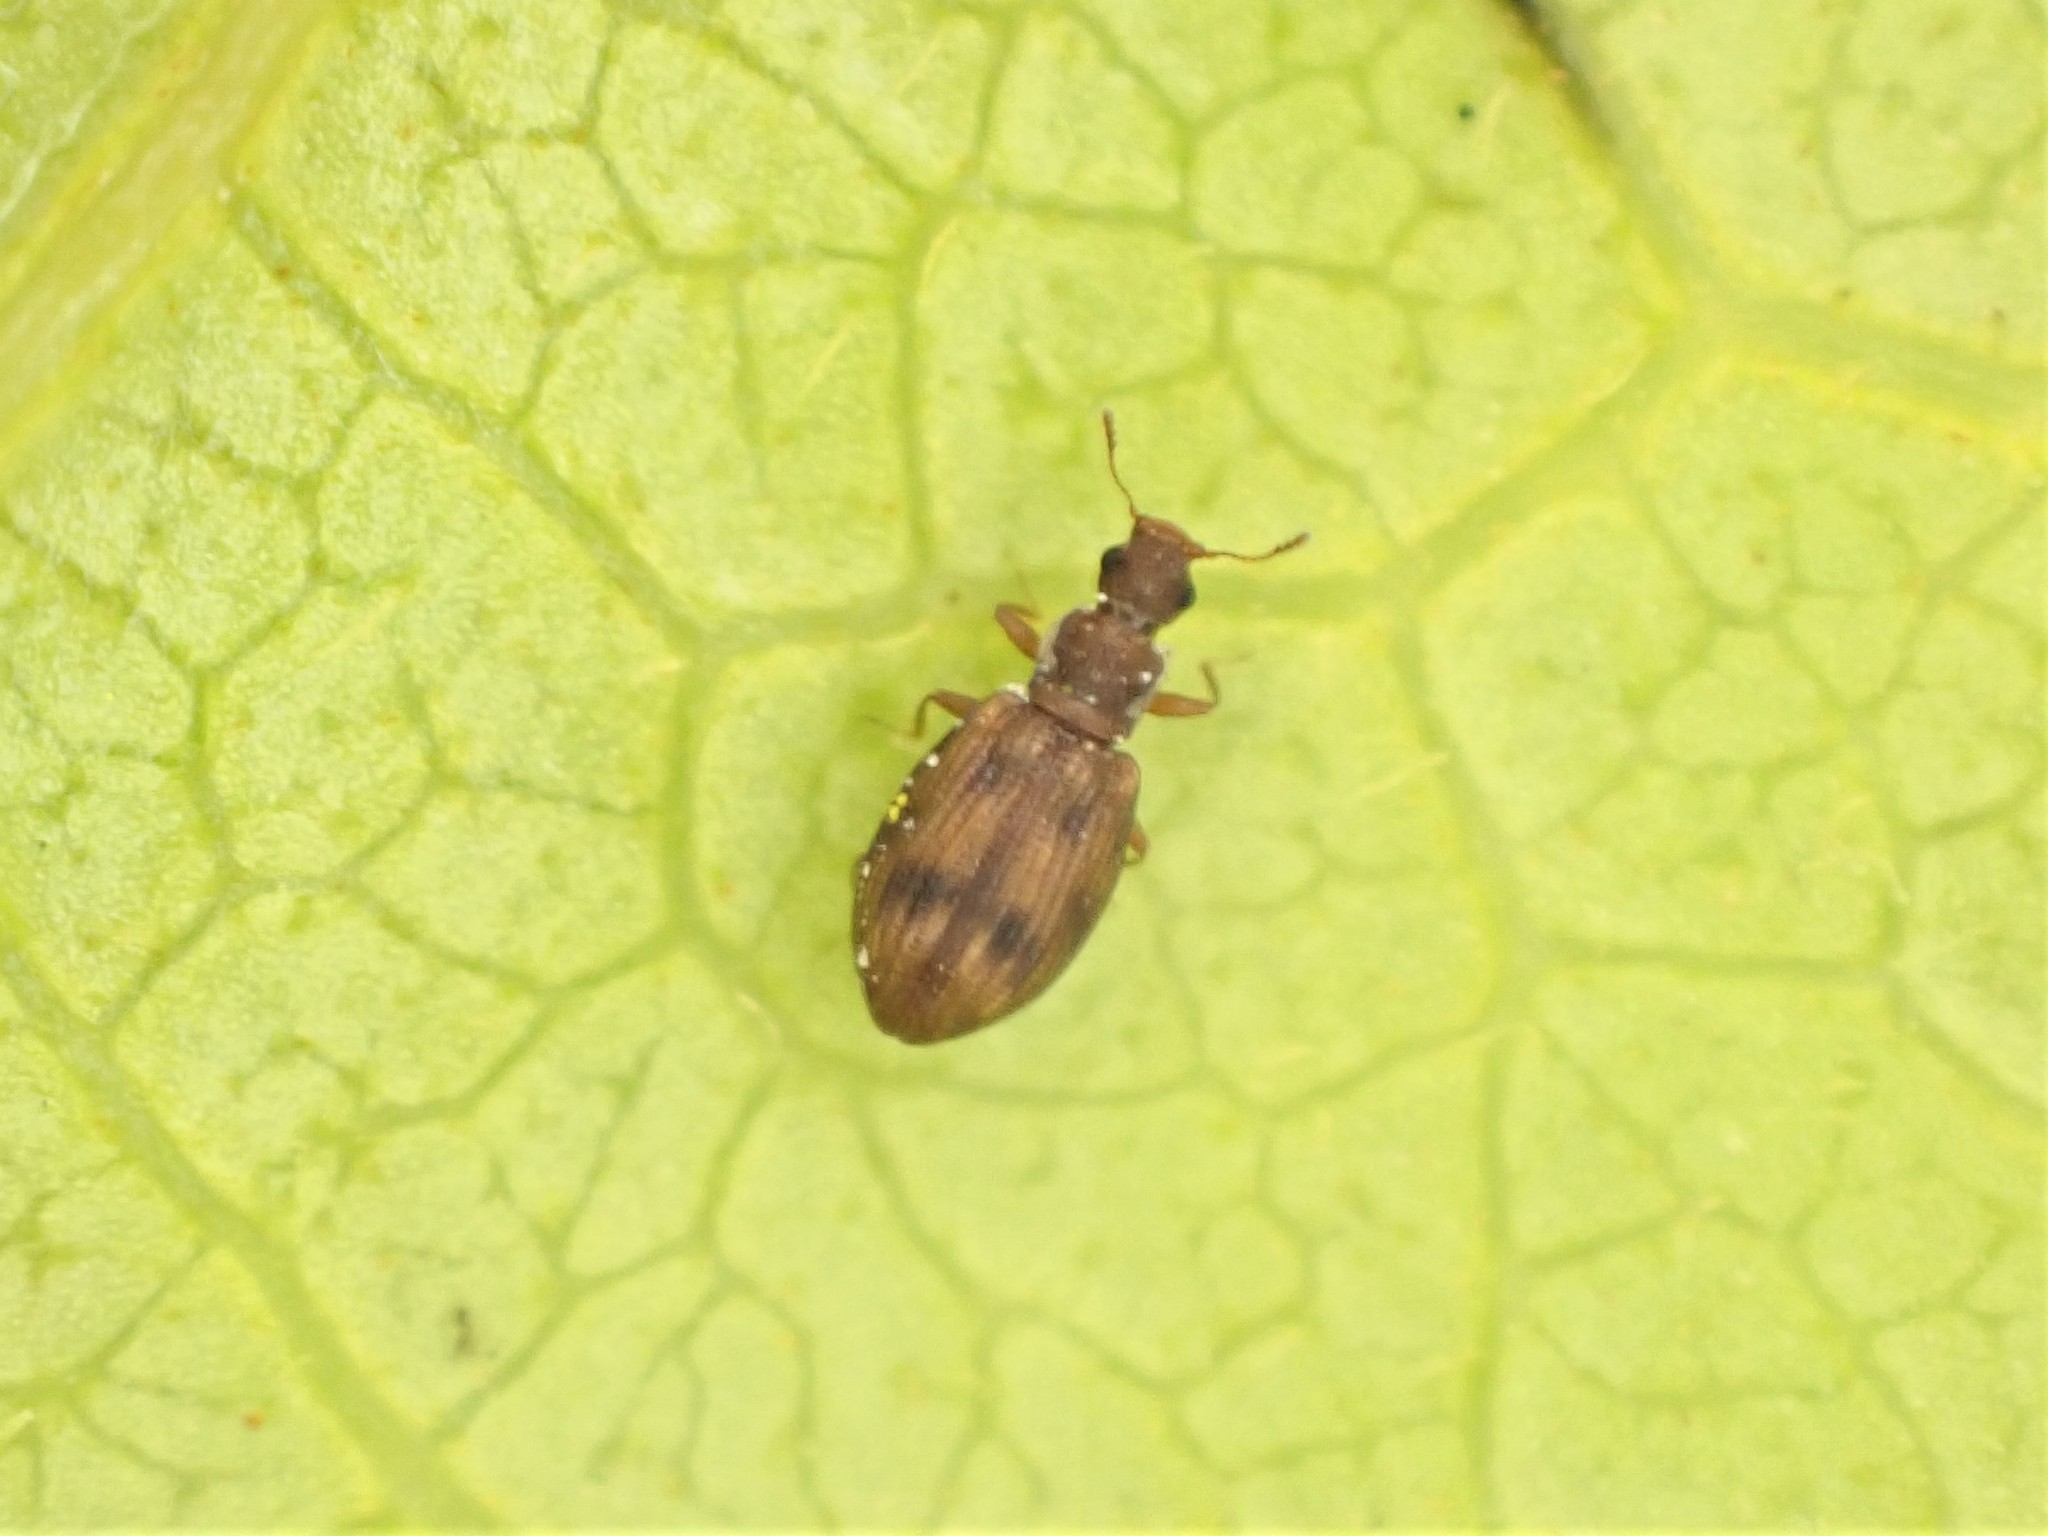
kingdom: Animalia
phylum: Arthropoda
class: Insecta
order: Coleoptera
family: Latridiidae
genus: Cartodere
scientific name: Cartodere bifasciata
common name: Plaster beetle
